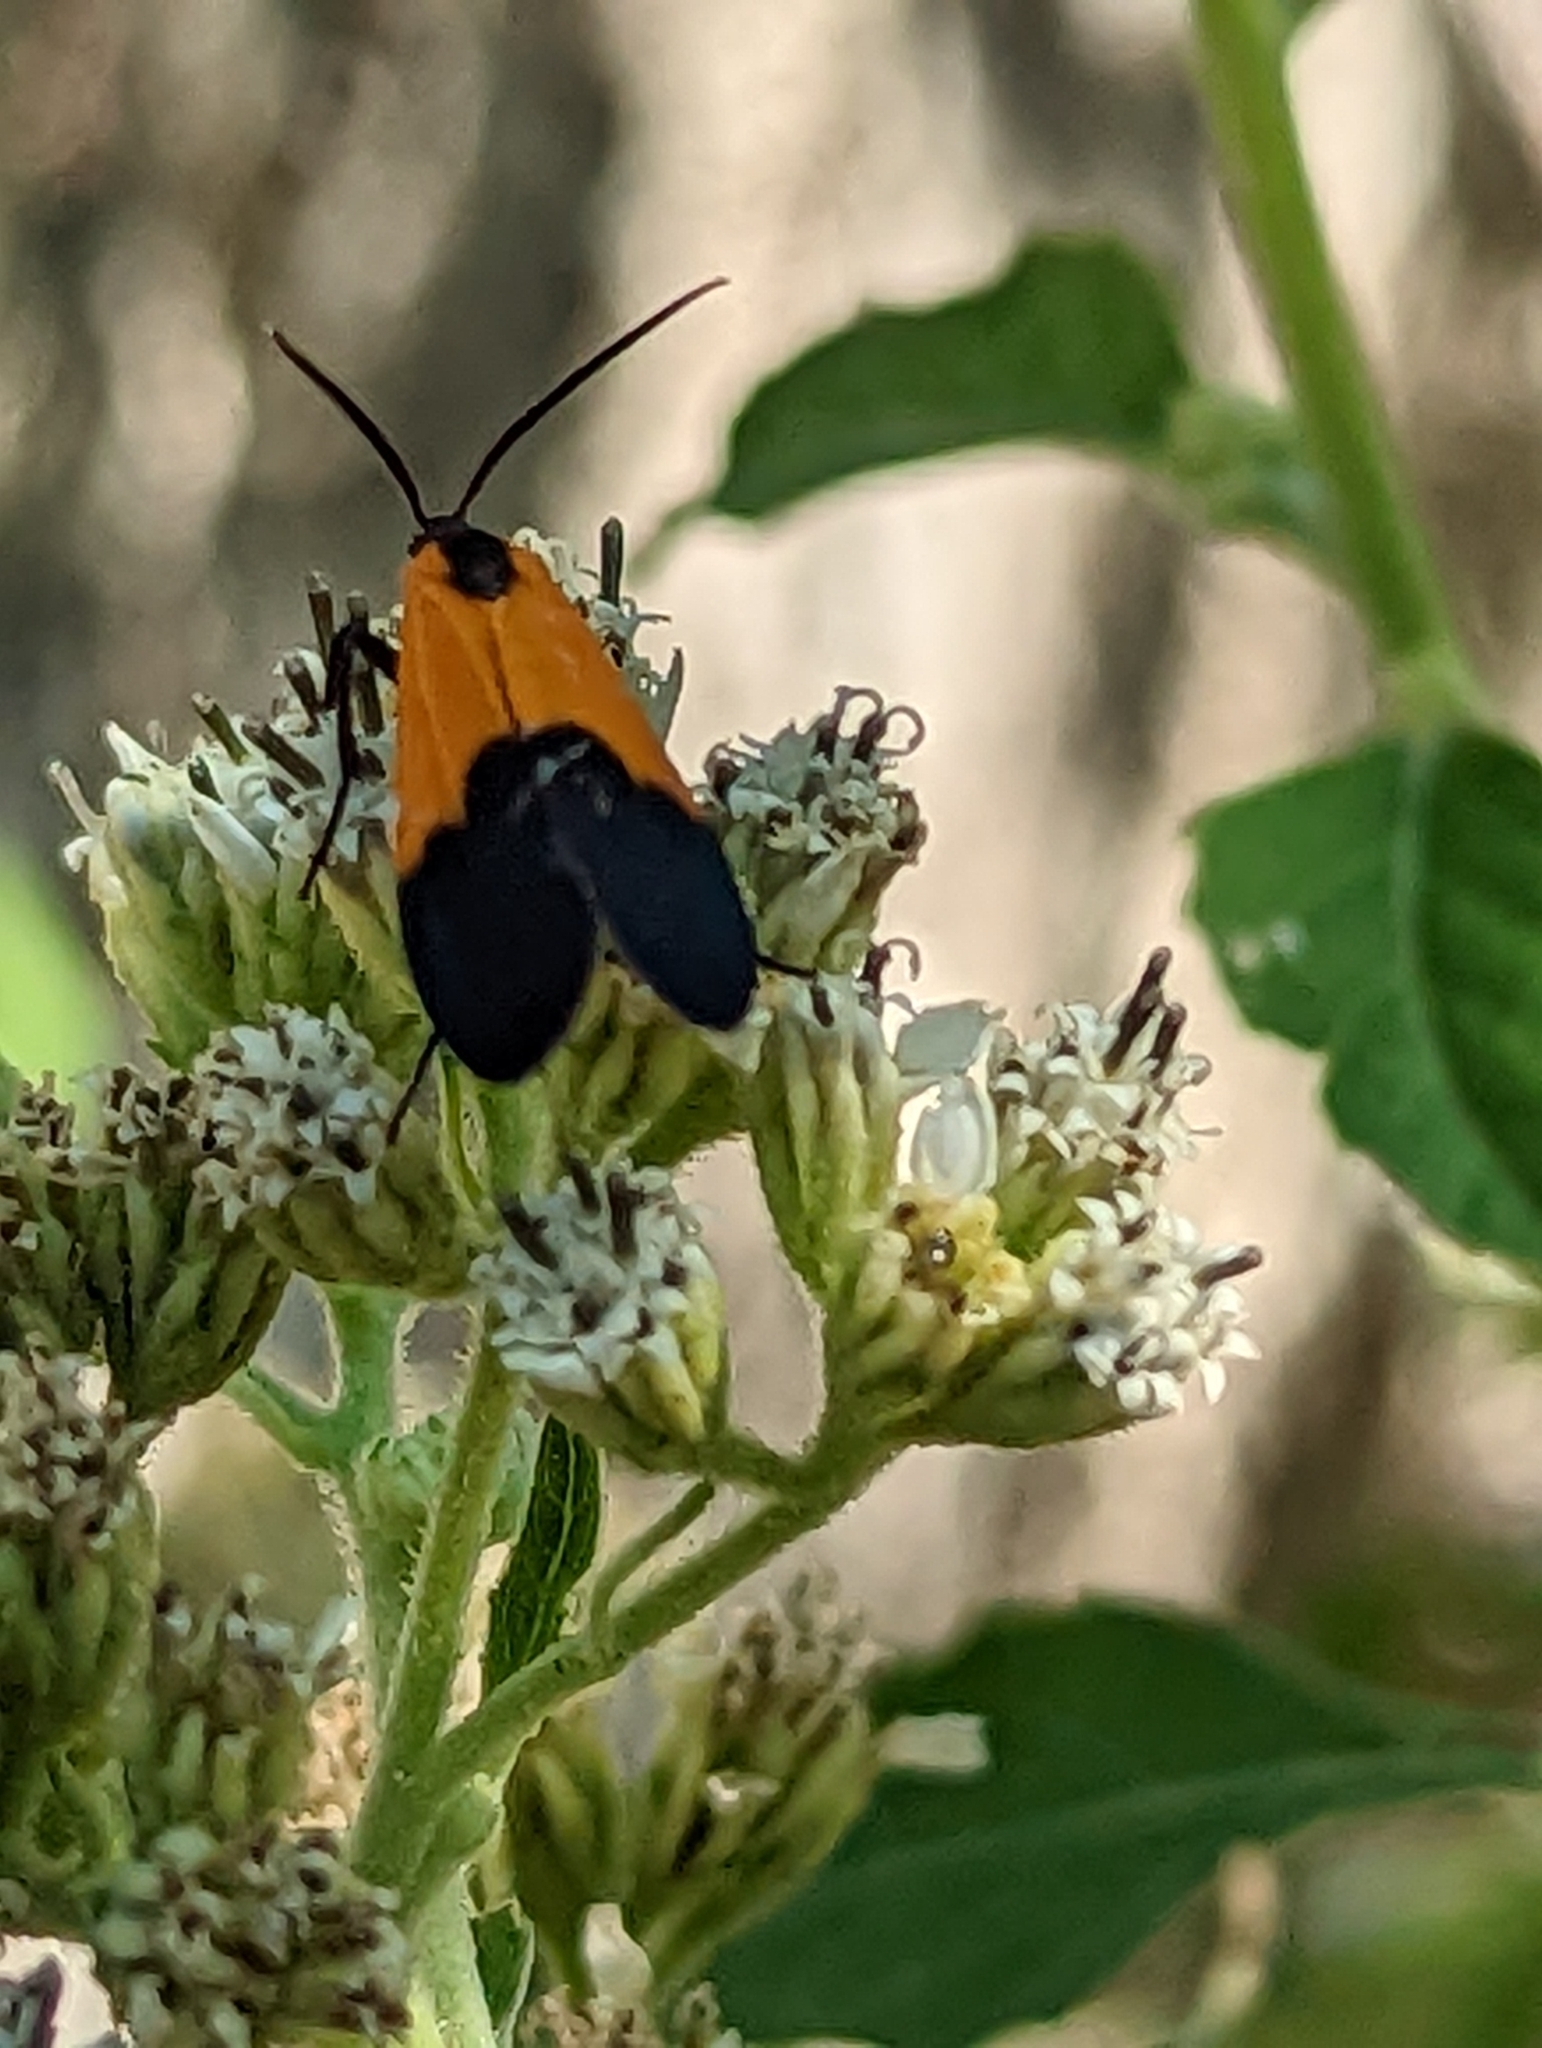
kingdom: Animalia
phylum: Arthropoda
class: Insecta
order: Lepidoptera
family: Erebidae
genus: Lycomorpha
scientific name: Lycomorpha pholus
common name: Black-and-yellow lichen moth
